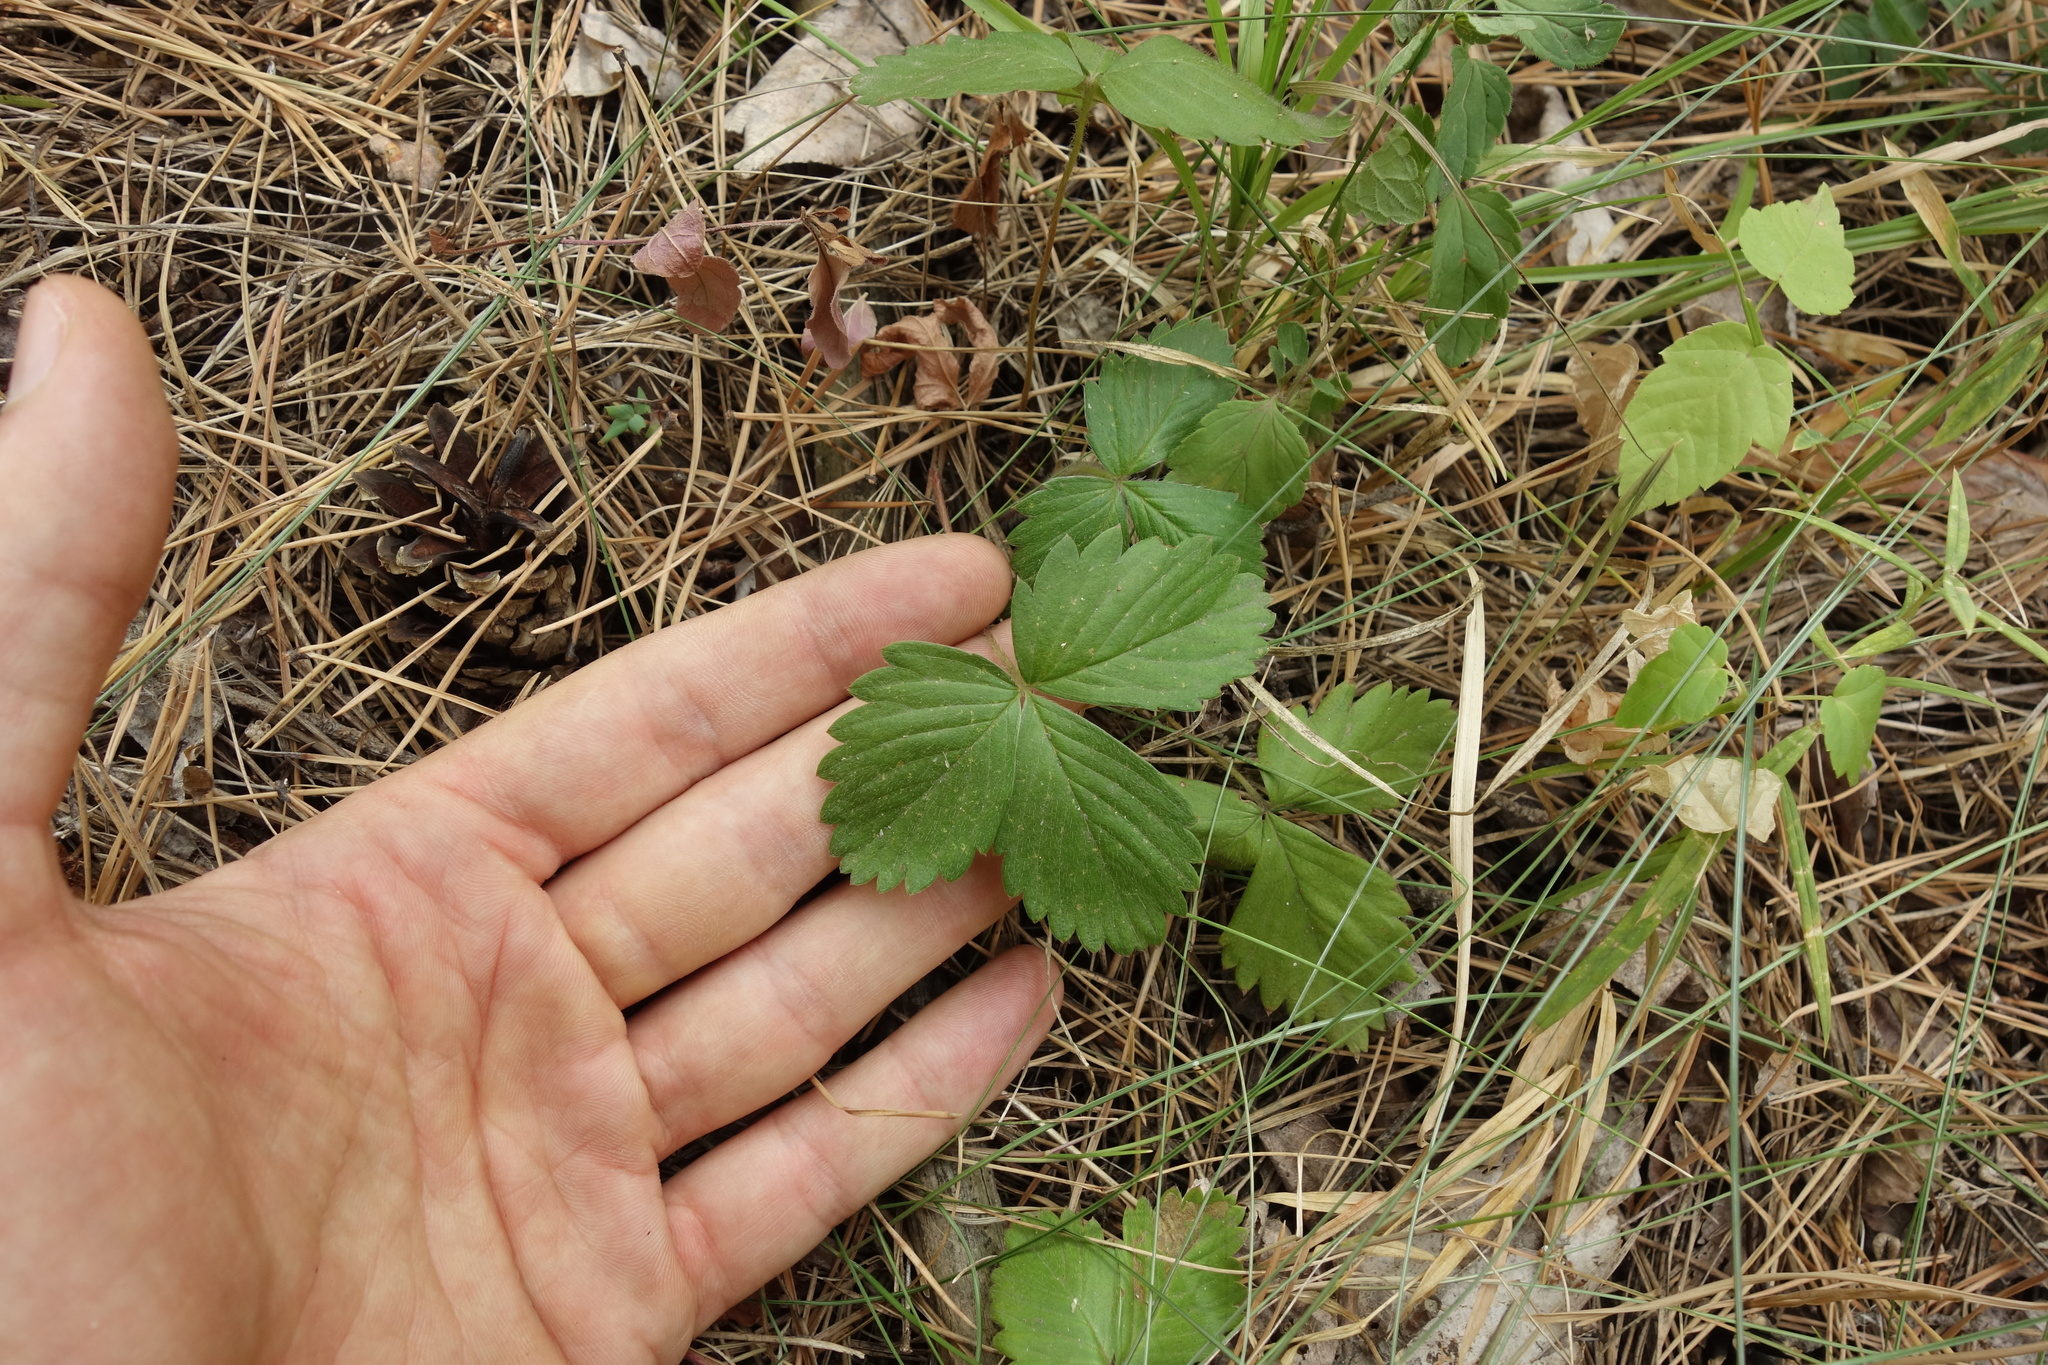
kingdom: Plantae
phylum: Tracheophyta
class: Magnoliopsida
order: Rosales
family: Rosaceae
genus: Fragaria
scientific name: Fragaria vesca
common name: Wild strawberry
